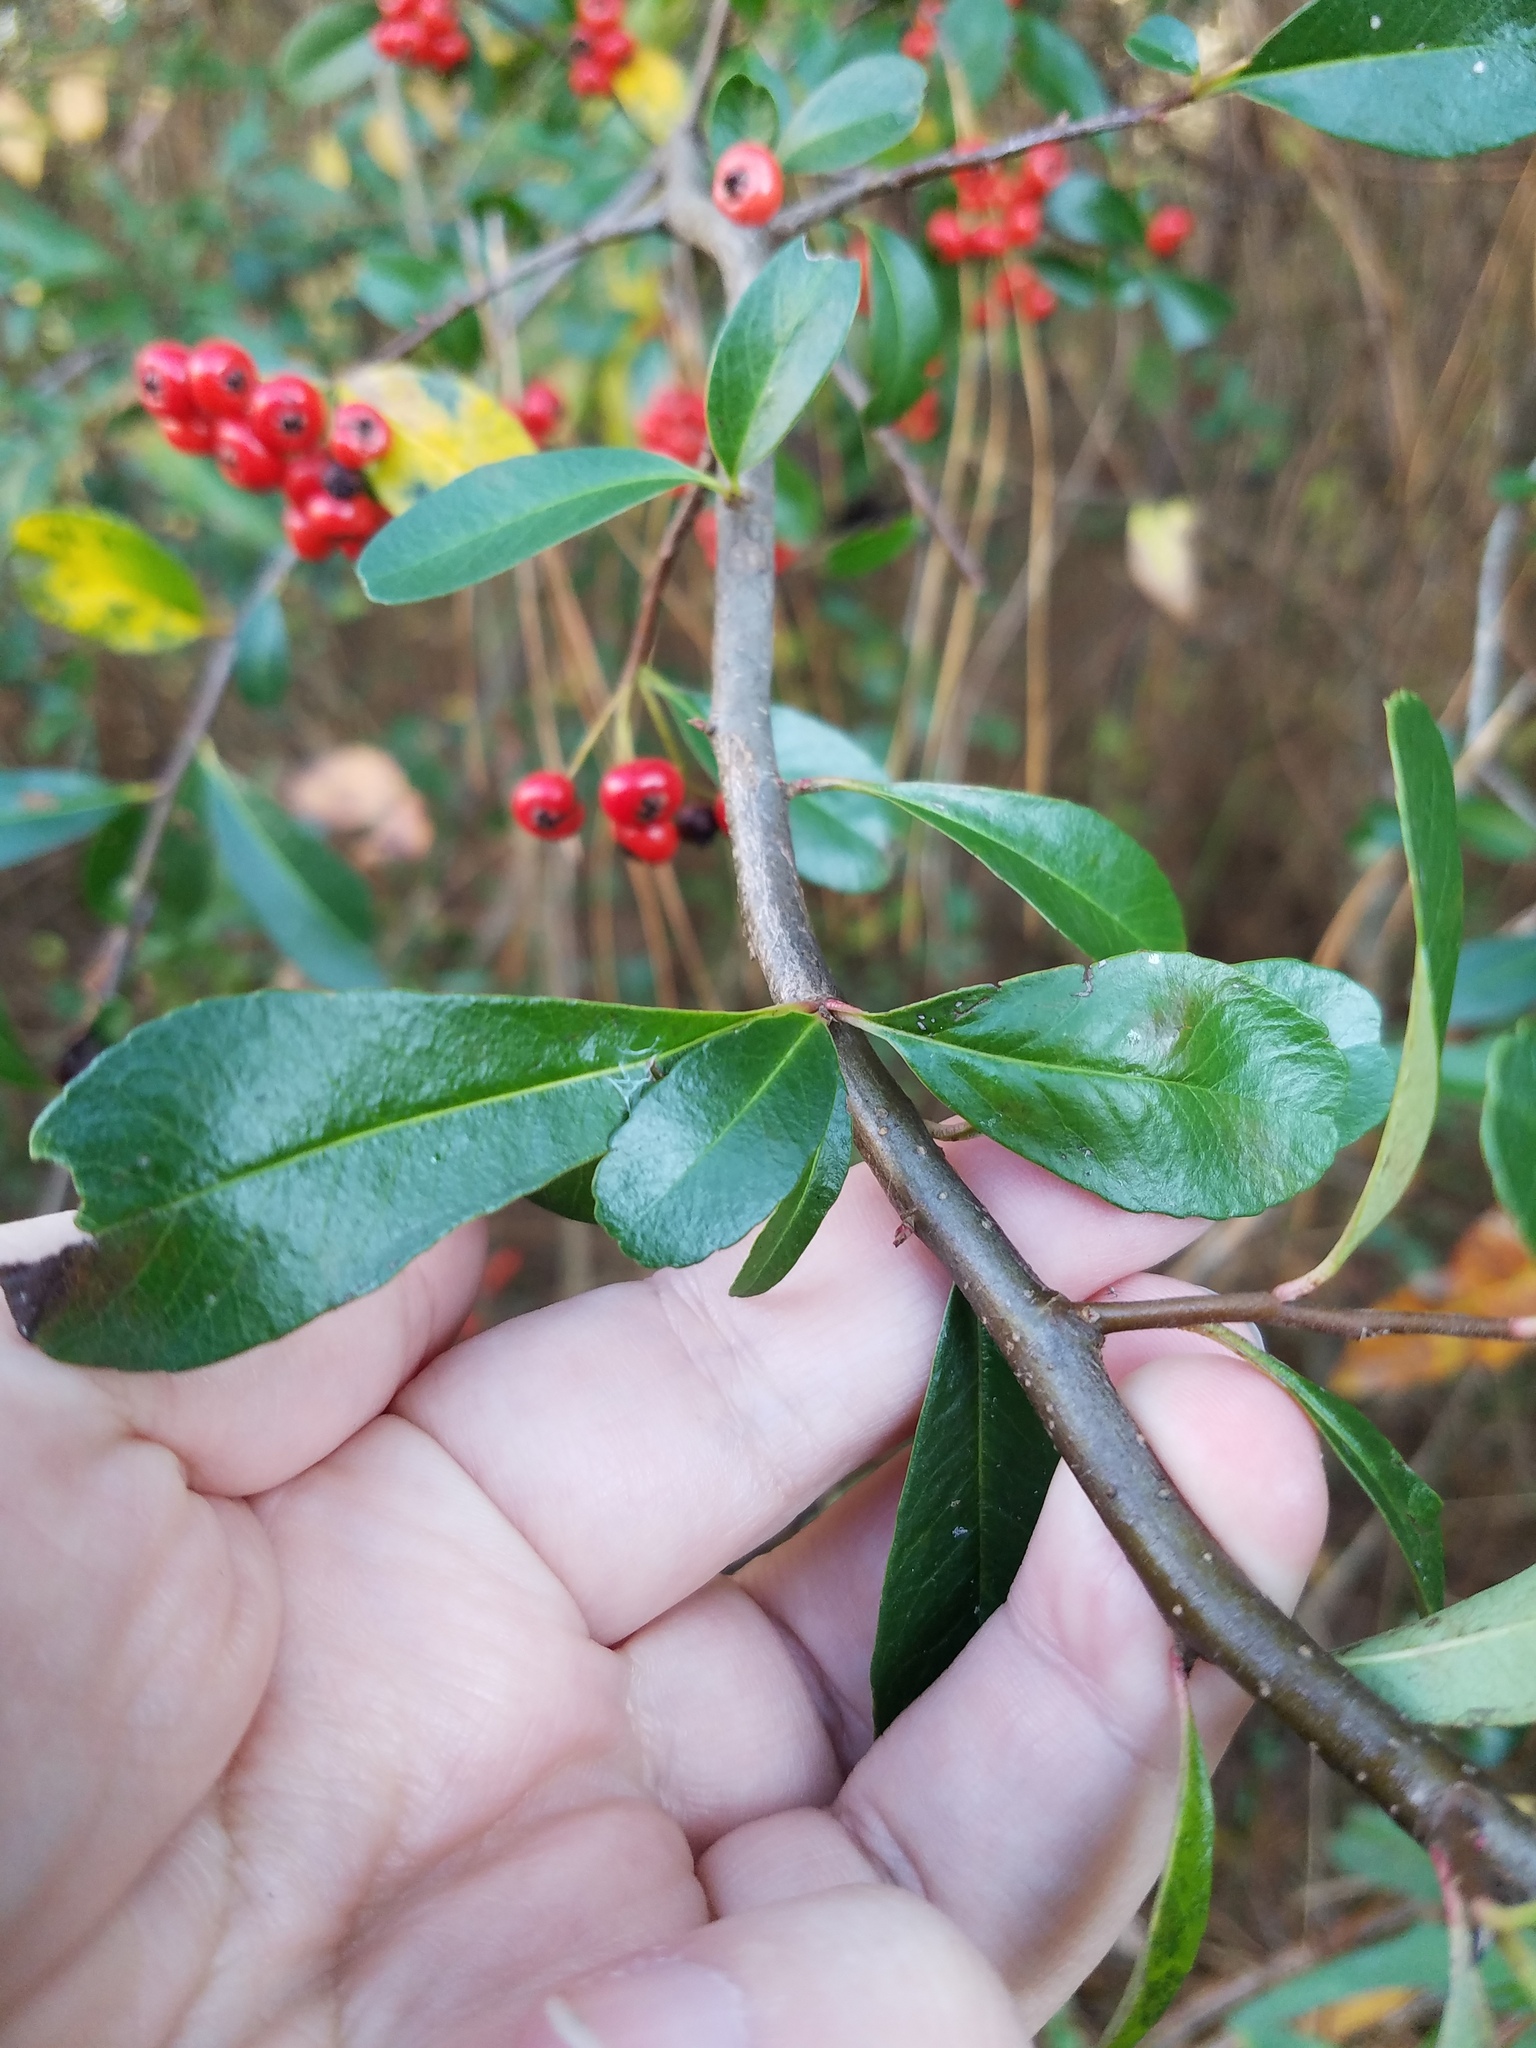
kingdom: Plantae
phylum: Tracheophyta
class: Magnoliopsida
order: Rosales
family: Rosaceae
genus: Pyracantha
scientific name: Pyracantha coccinea
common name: Firethorn
